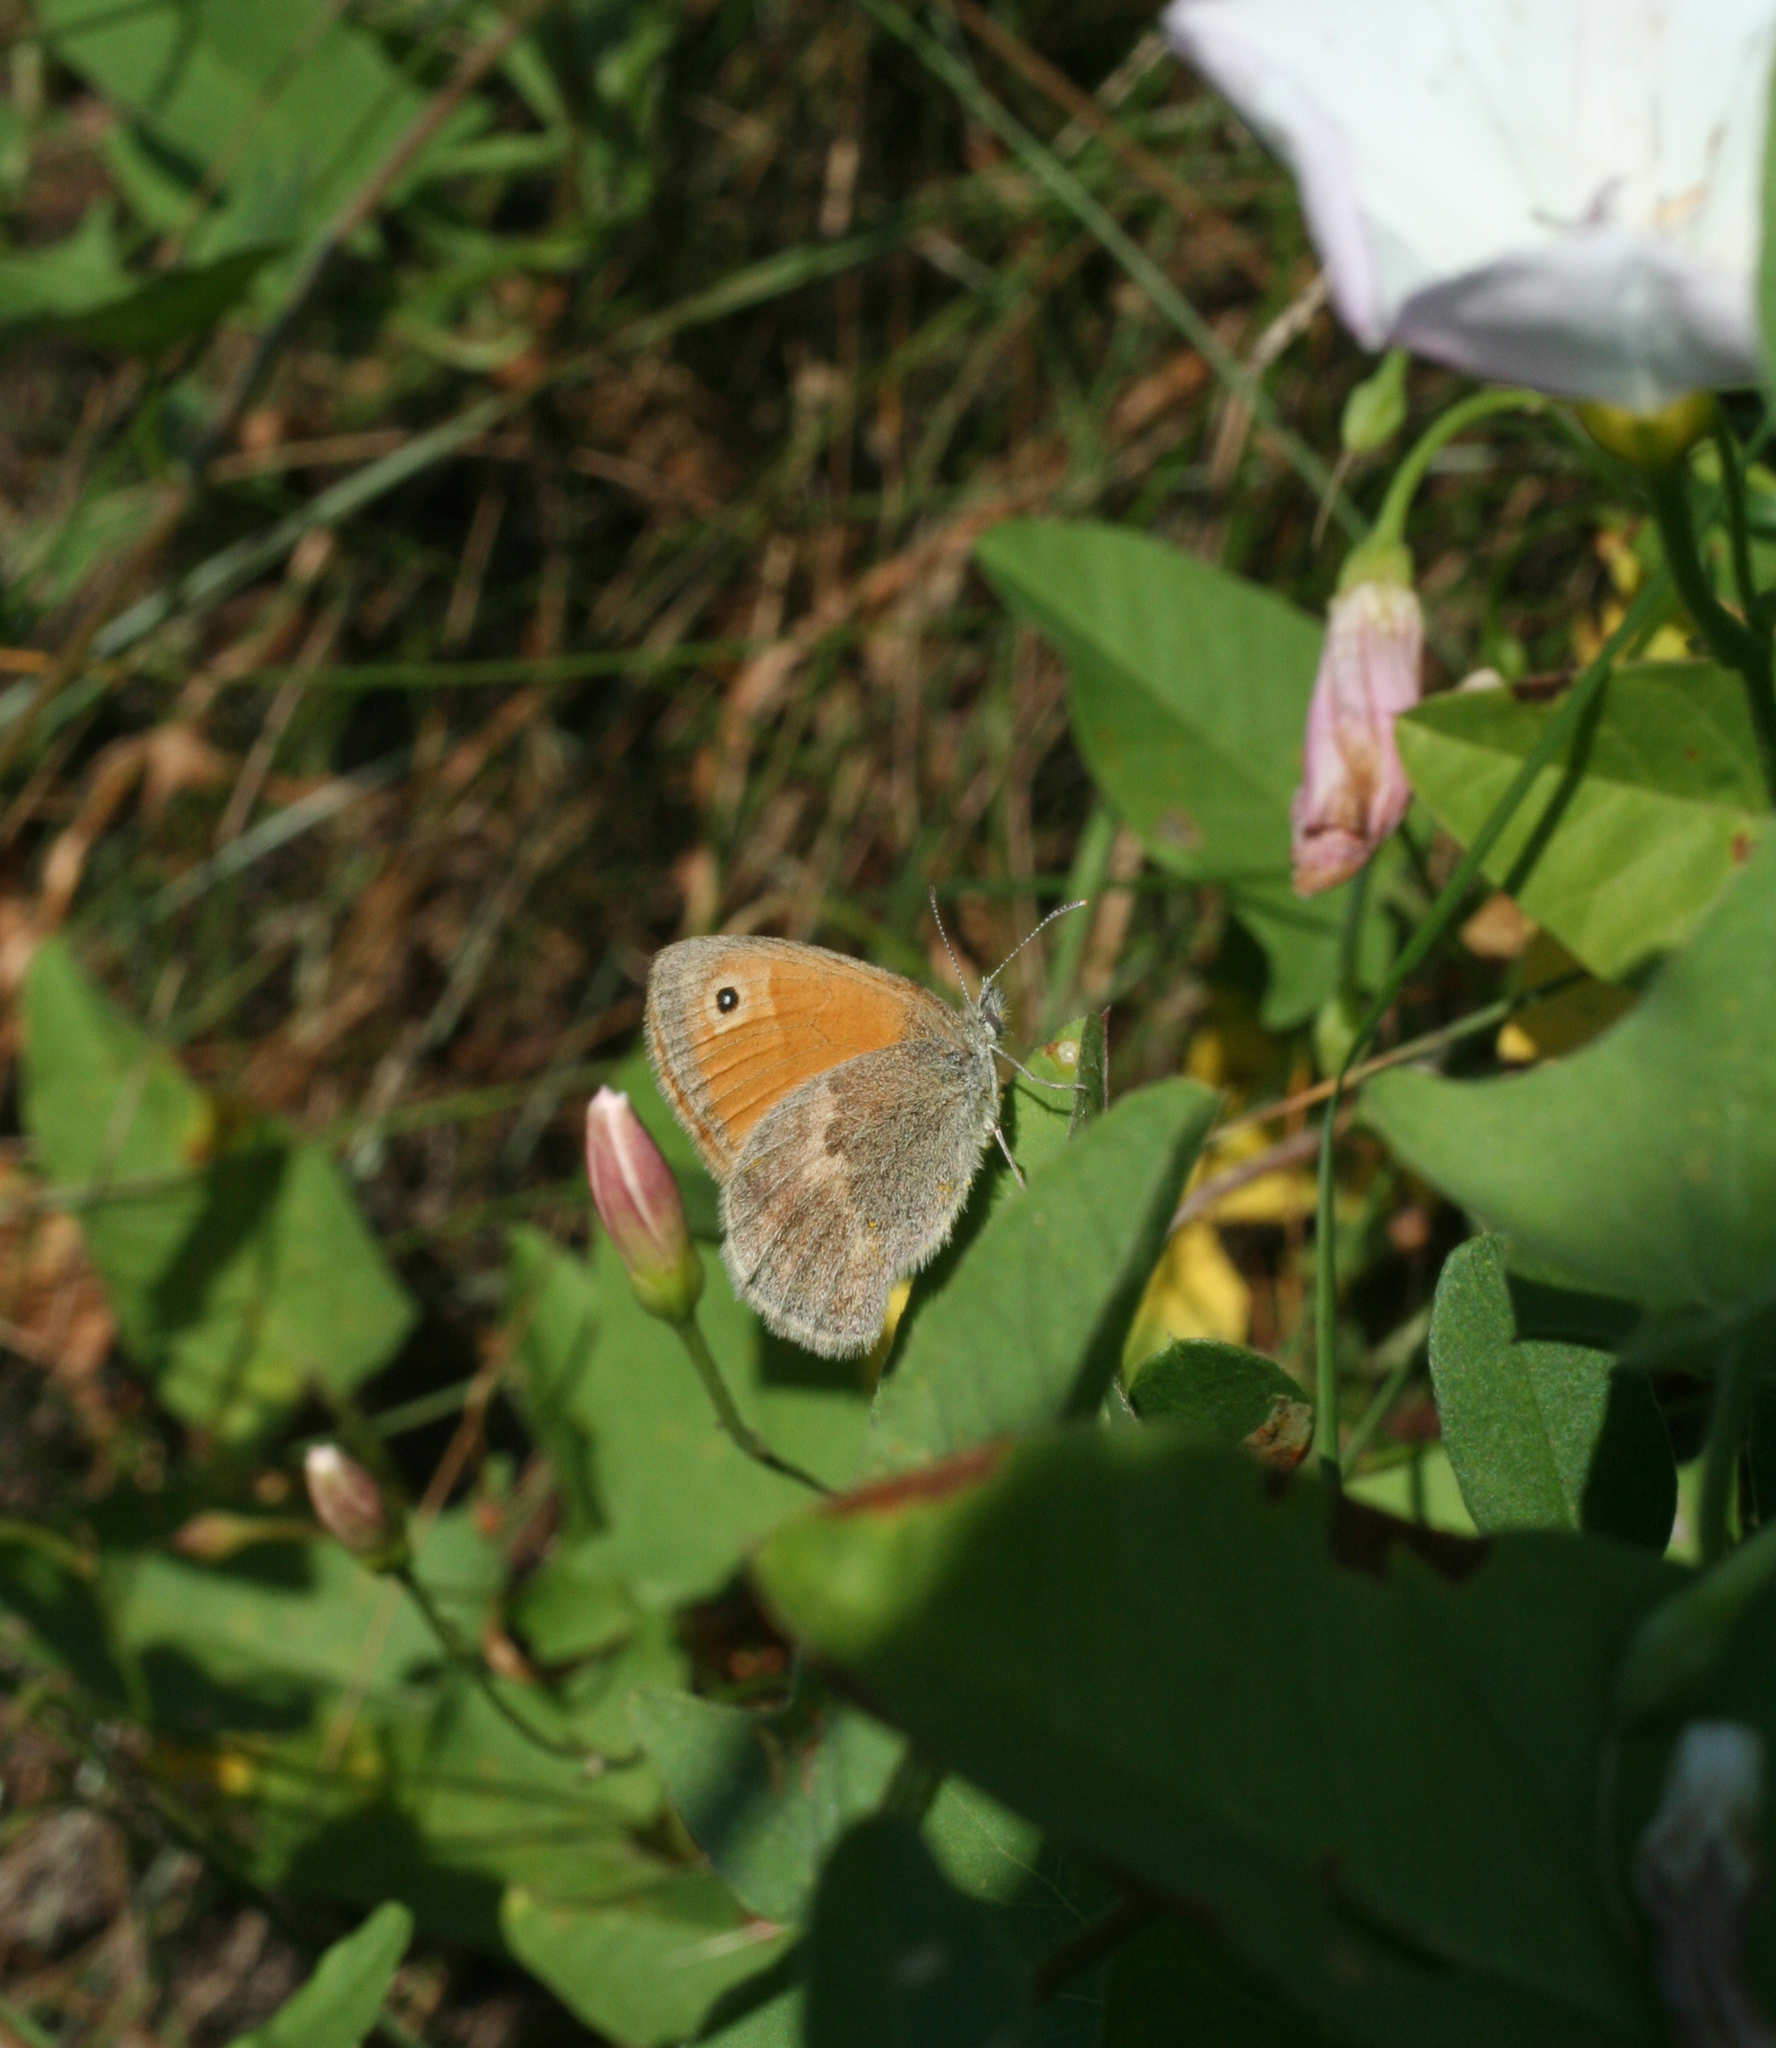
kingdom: Animalia
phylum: Arthropoda
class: Insecta
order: Lepidoptera
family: Nymphalidae
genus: Coenonympha
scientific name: Coenonympha pamphilus
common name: Small heath
